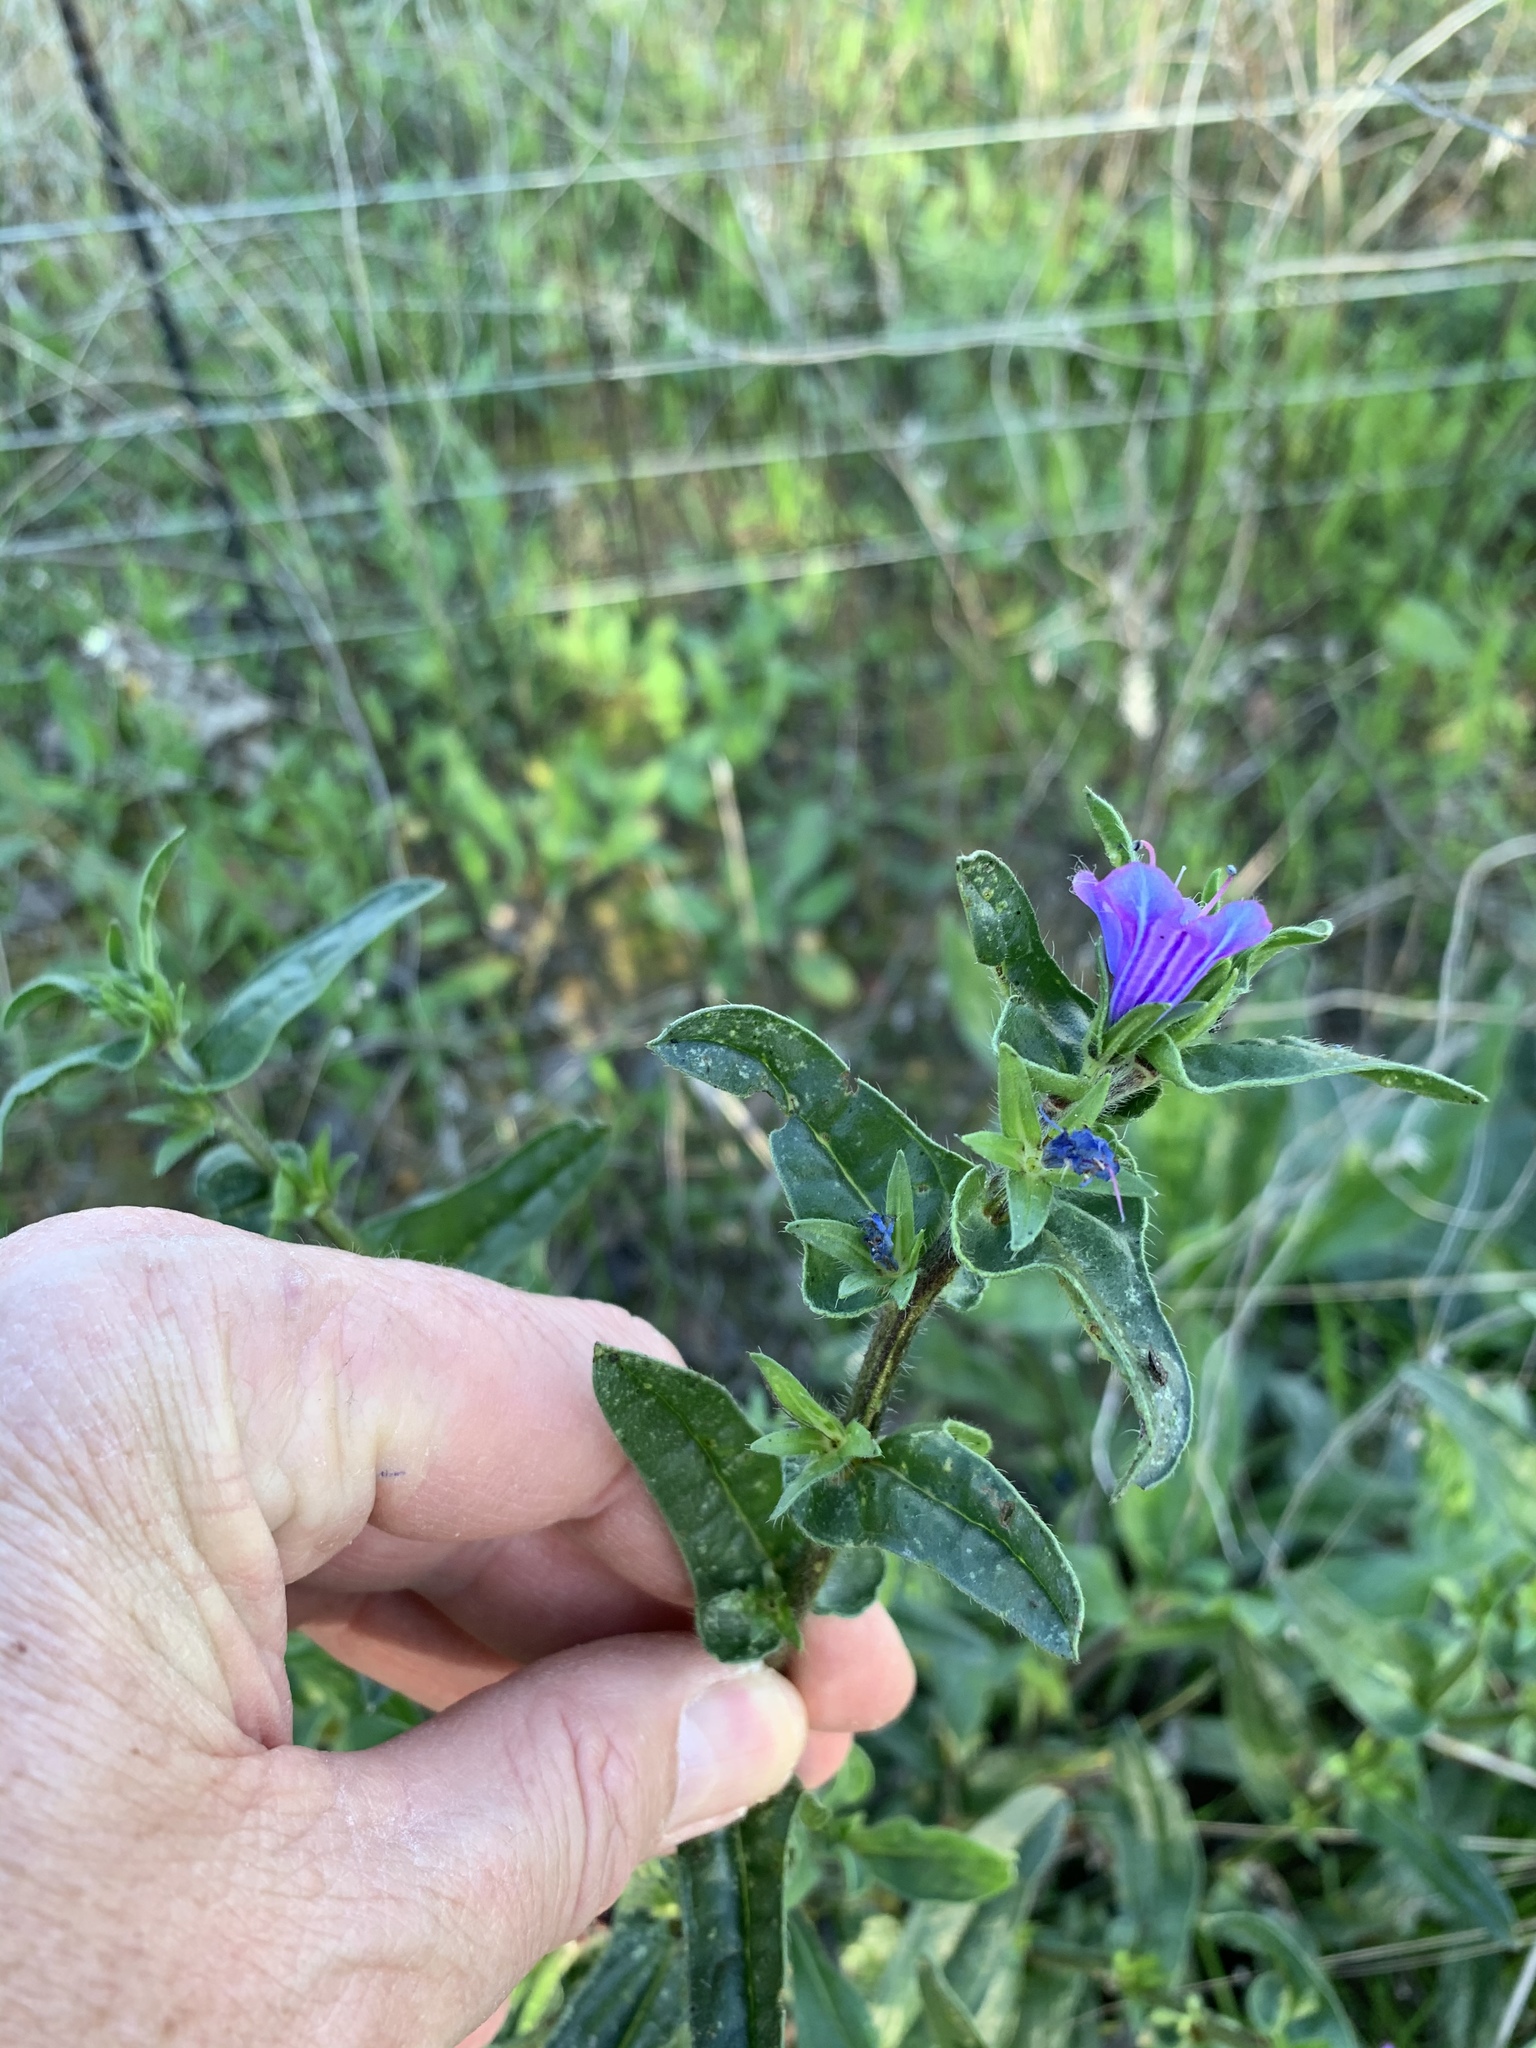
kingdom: Plantae
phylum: Tracheophyta
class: Magnoliopsida
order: Boraginales
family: Boraginaceae
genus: Echium
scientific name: Echium plantagineum
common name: Purple viper's-bugloss
